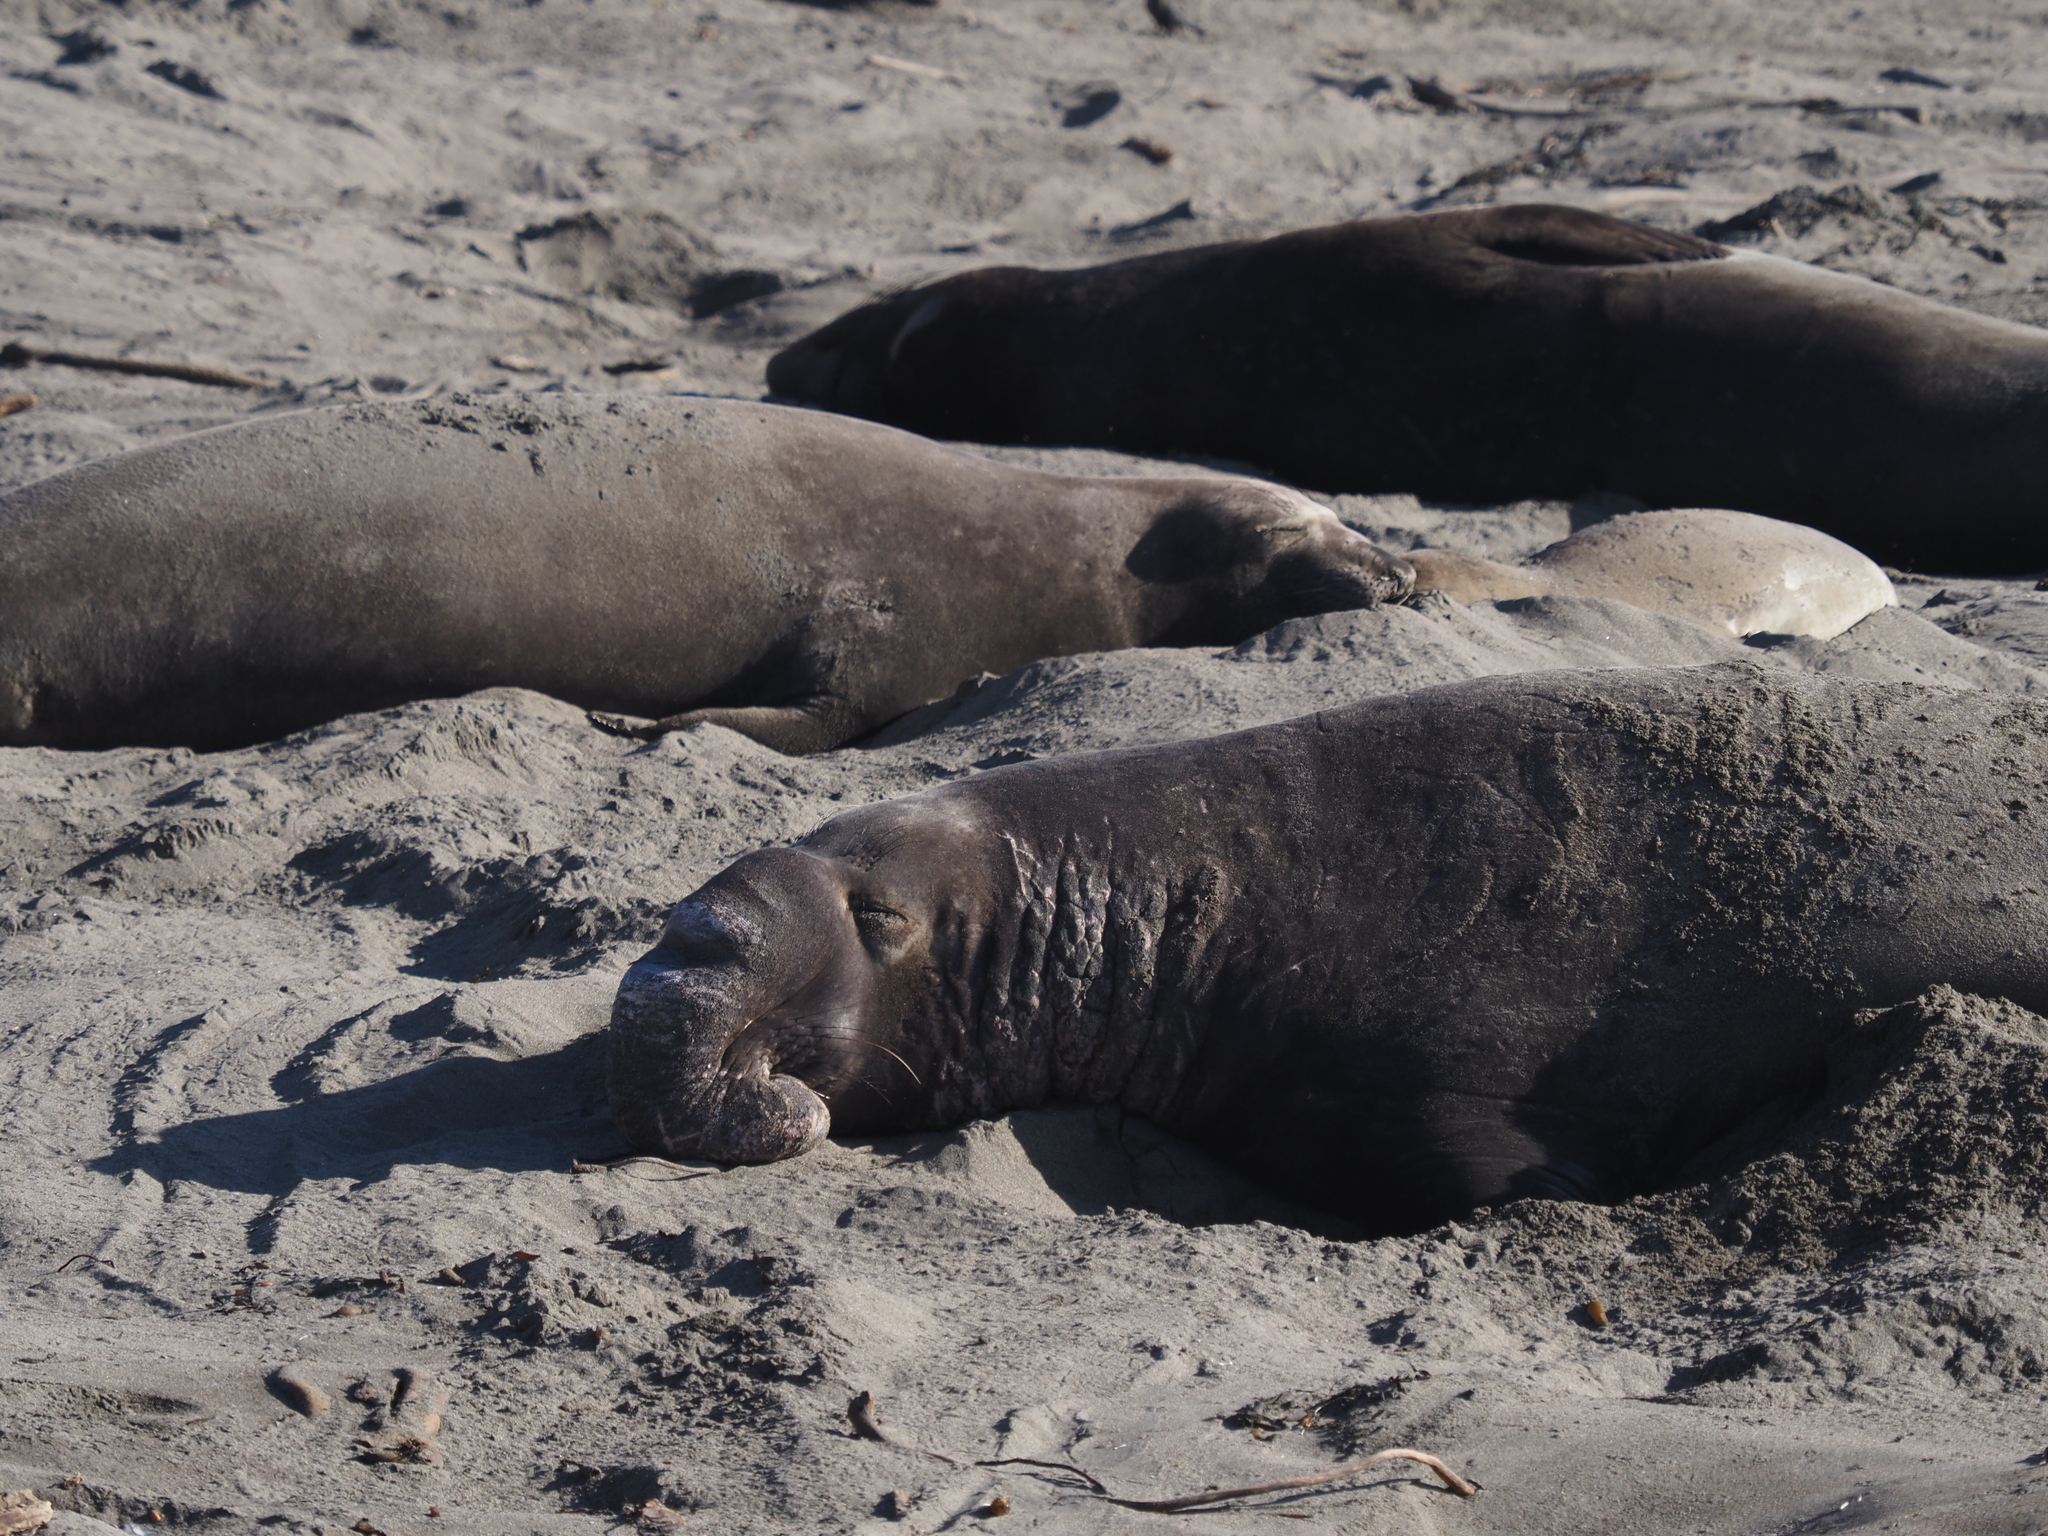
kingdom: Animalia
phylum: Chordata
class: Mammalia
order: Carnivora
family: Phocidae
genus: Mirounga
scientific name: Mirounga angustirostris
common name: Northern elephant seal
